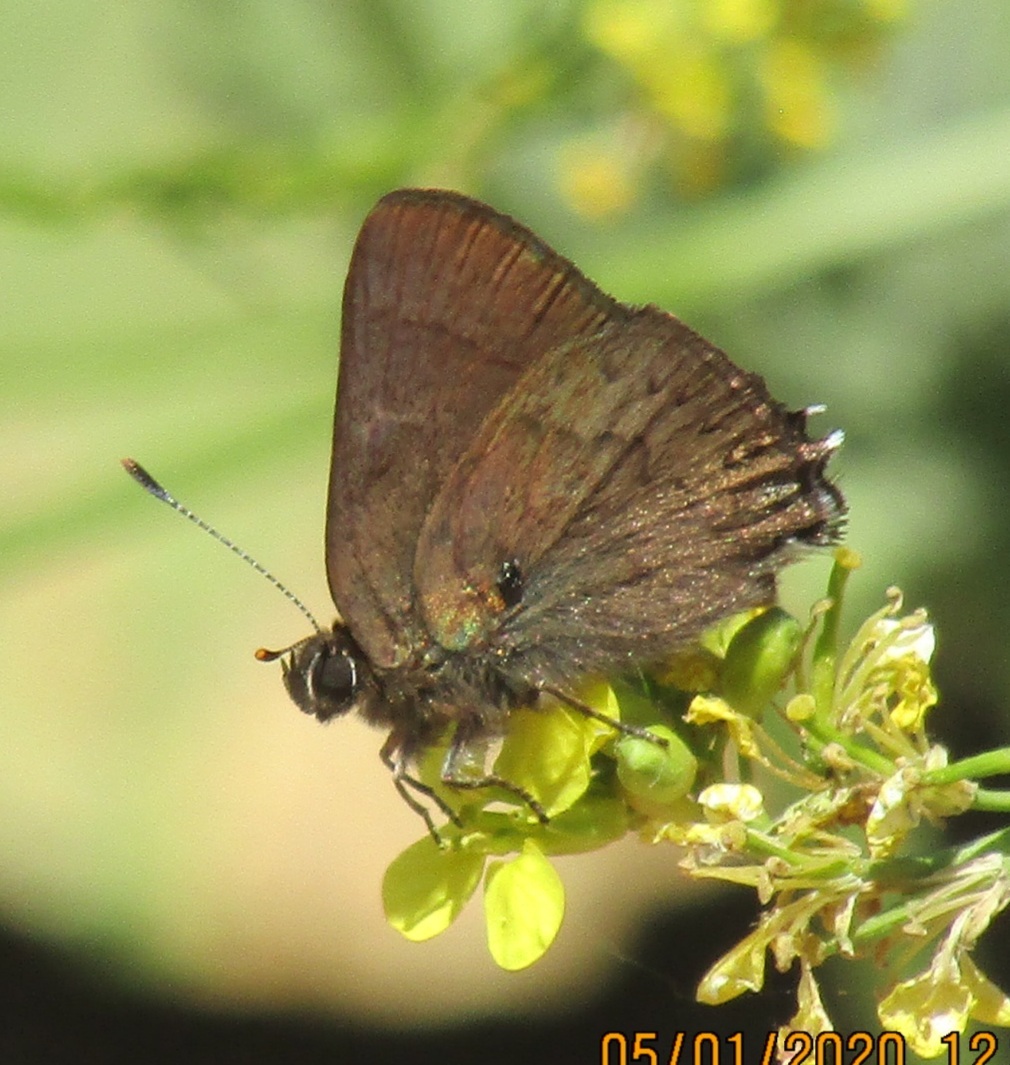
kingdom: Animalia
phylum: Arthropoda
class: Insecta
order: Lepidoptera
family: Lycaenidae
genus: Strymon
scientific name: Strymon saepium
